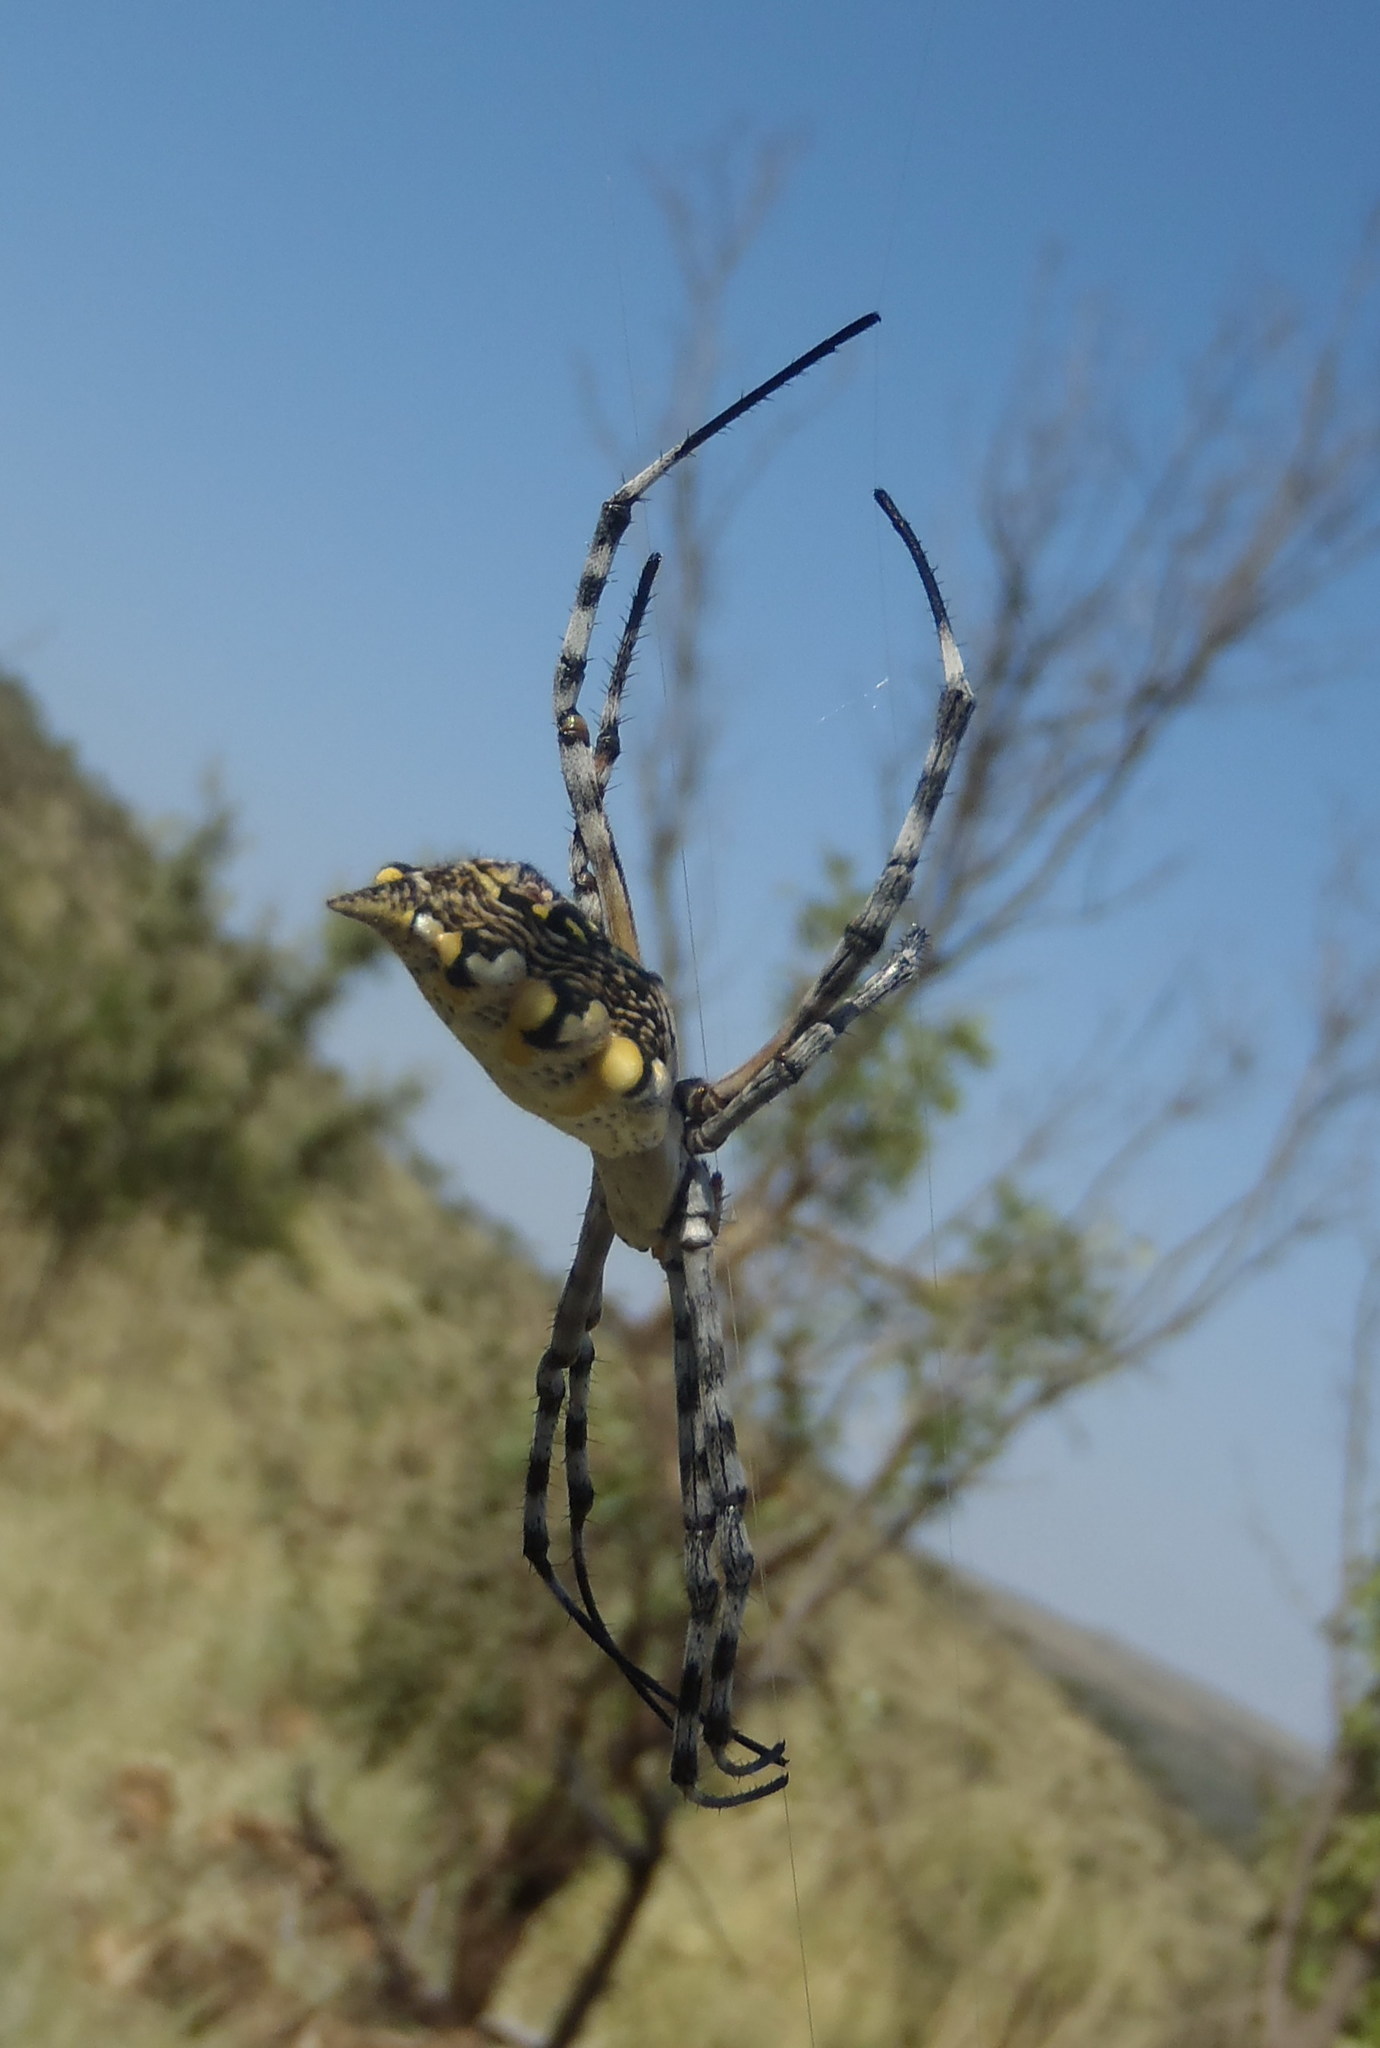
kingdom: Animalia
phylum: Arthropoda
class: Arachnida
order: Araneae
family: Araneidae
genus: Argiope
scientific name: Argiope australis
